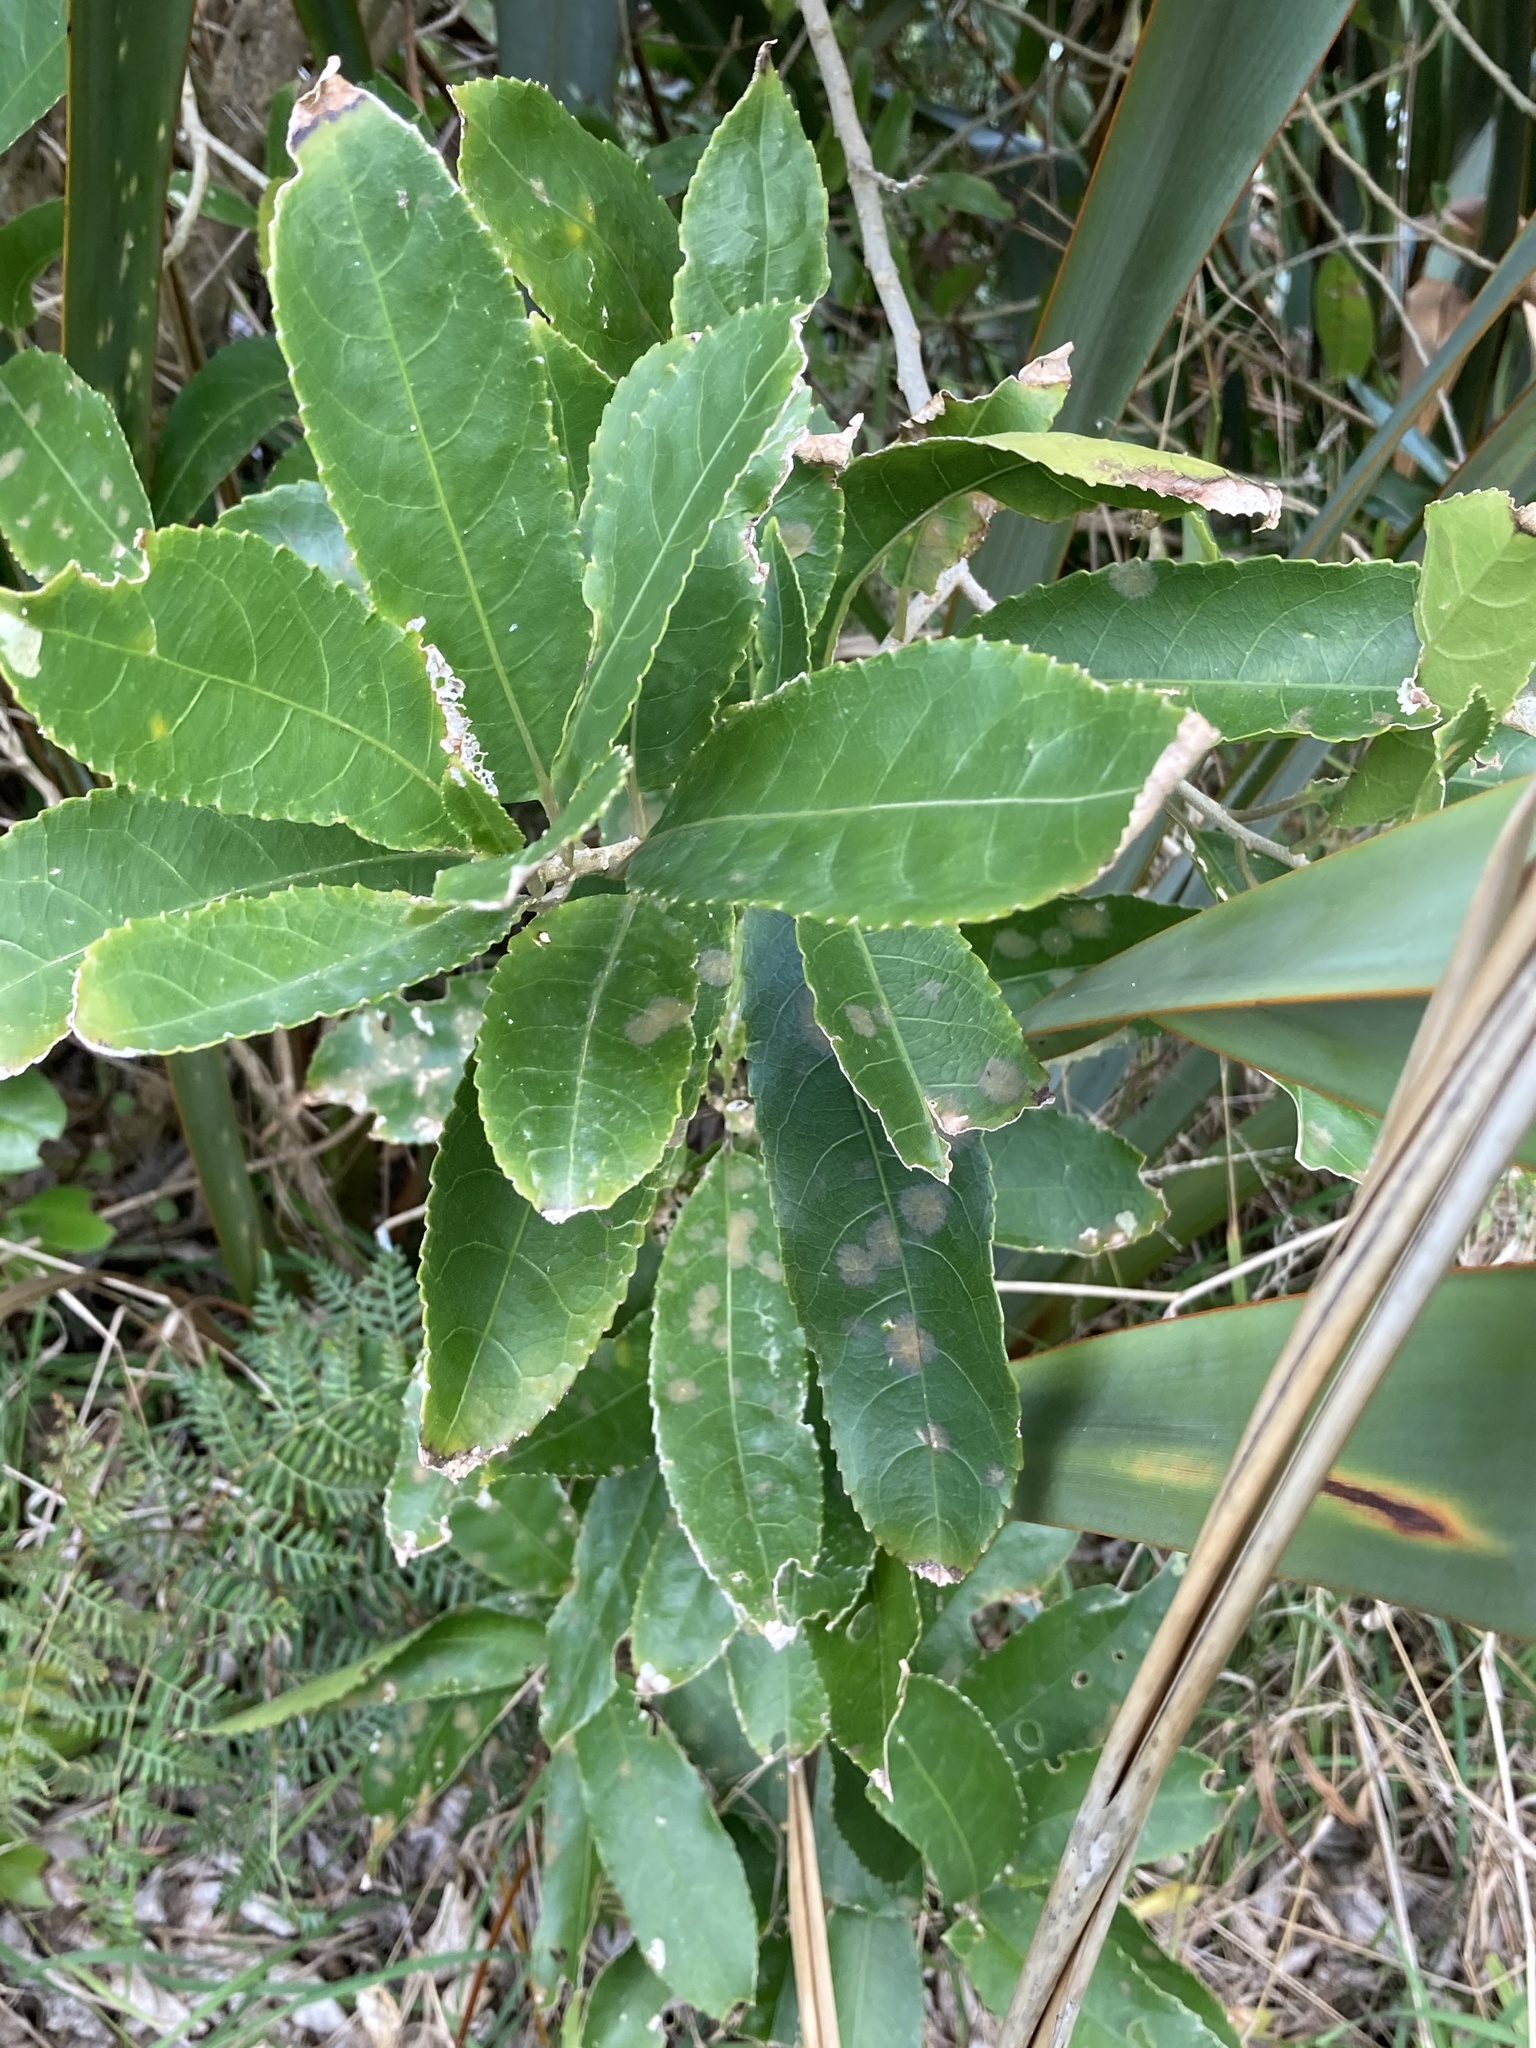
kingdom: Plantae
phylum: Tracheophyta
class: Magnoliopsida
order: Malpighiales
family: Violaceae
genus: Melicytus
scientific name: Melicytus ramiflorus
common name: Mahoe
